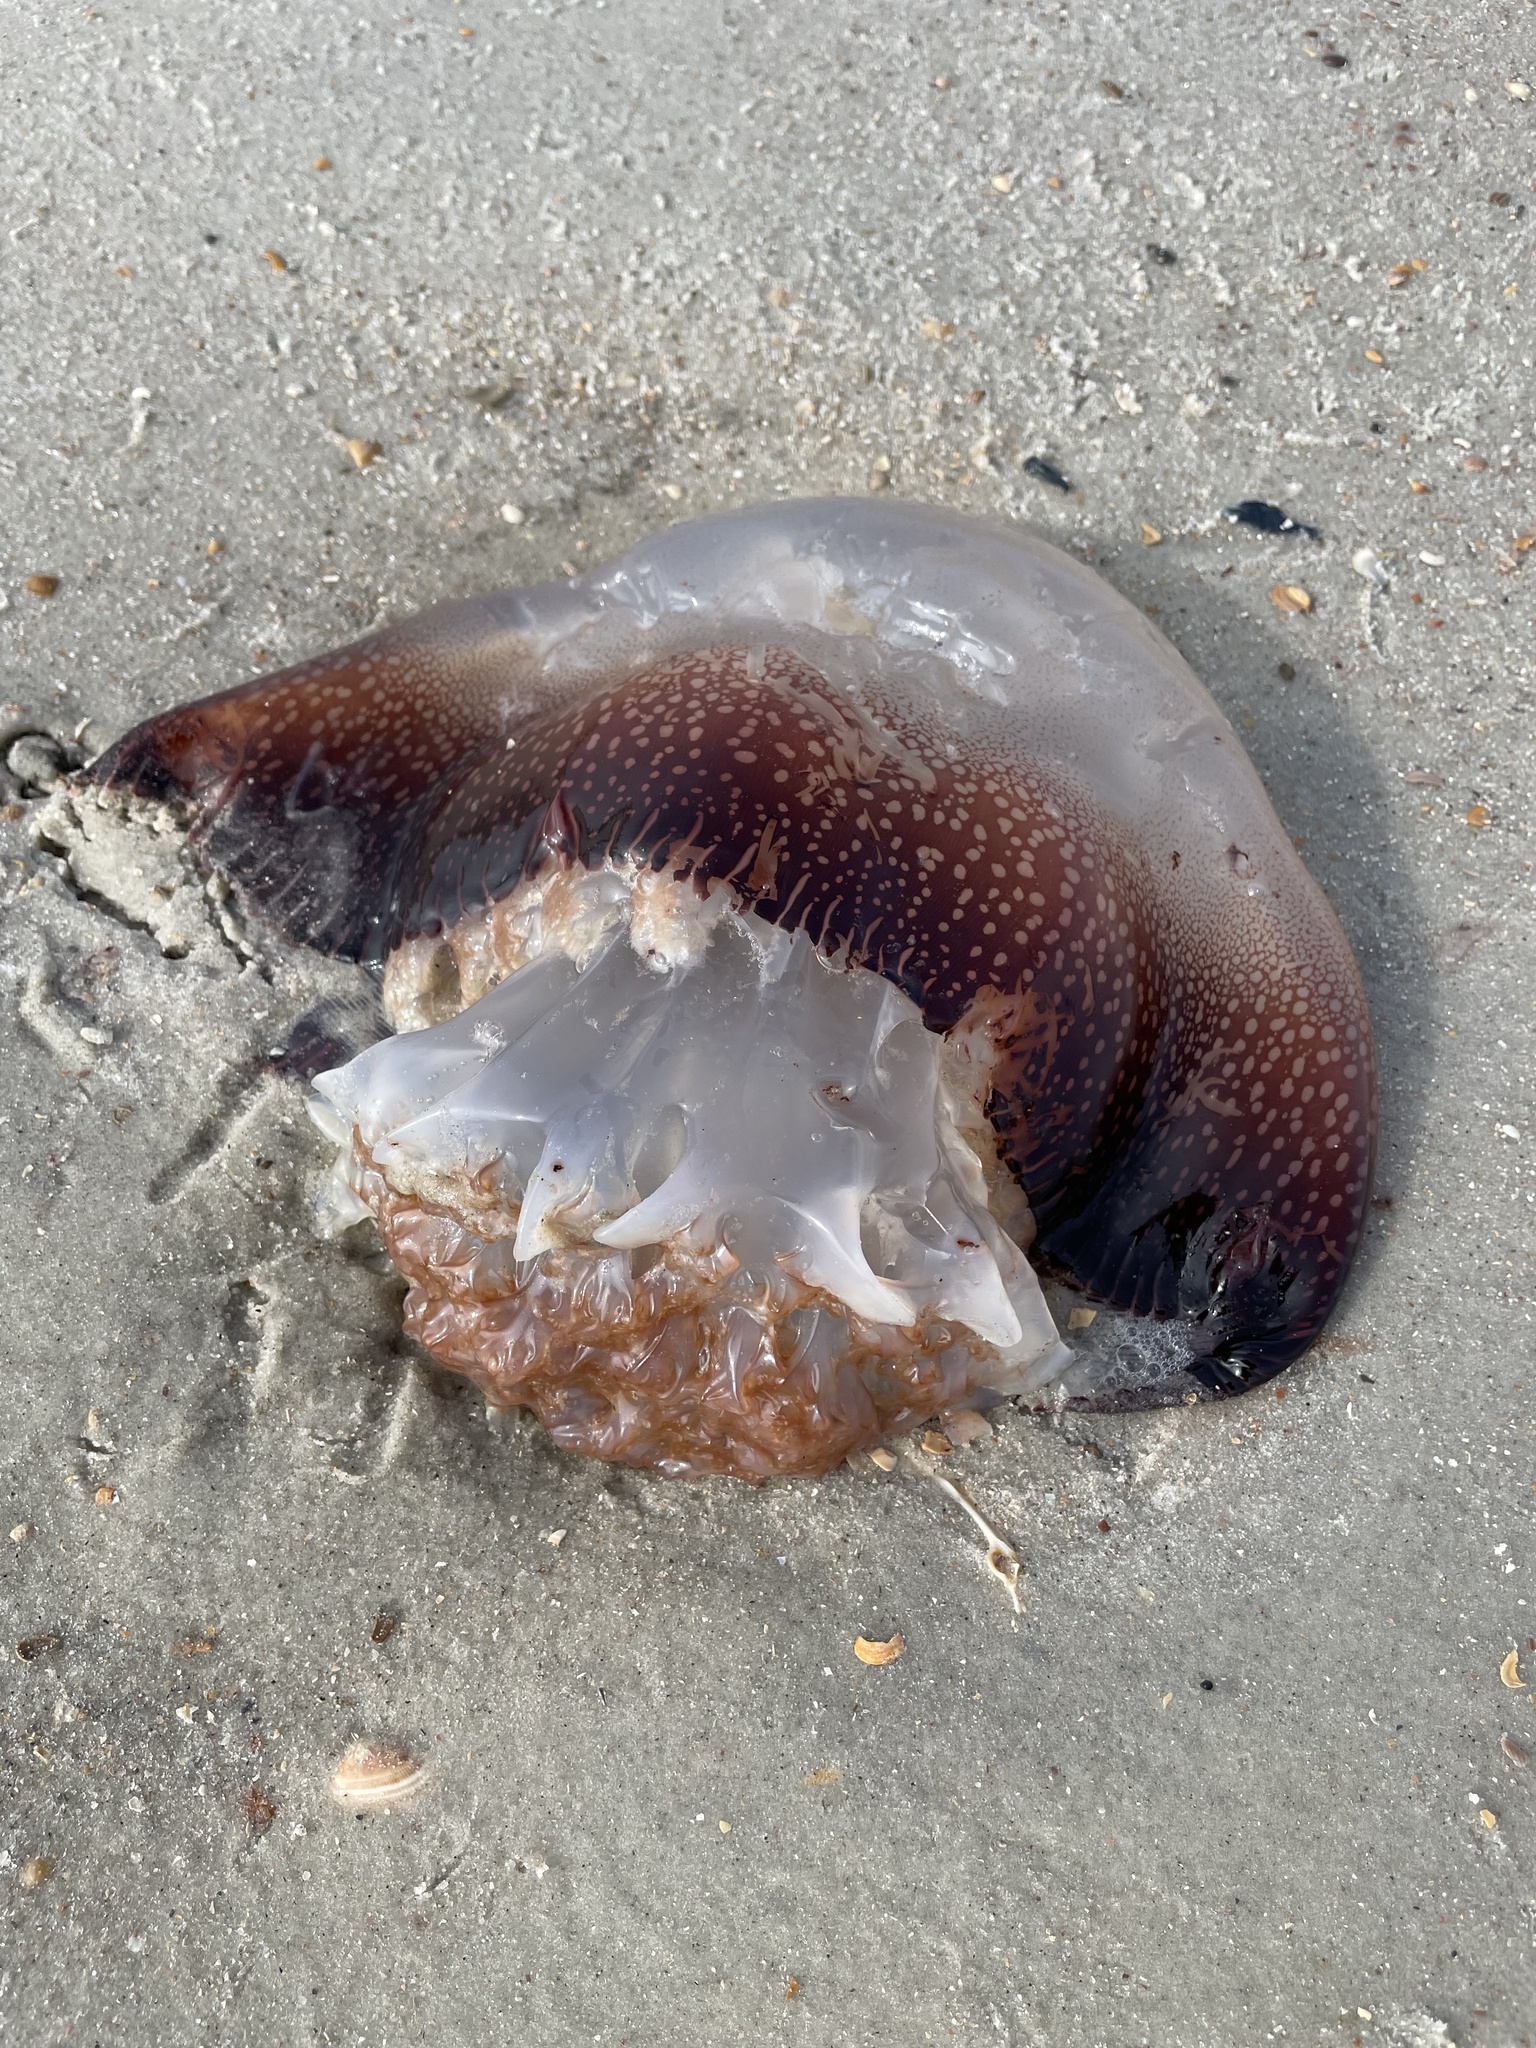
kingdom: Animalia
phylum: Cnidaria
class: Scyphozoa
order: Rhizostomeae
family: Stomolophidae
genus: Stomolophus
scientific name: Stomolophus meleagris
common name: Cabbagehead
